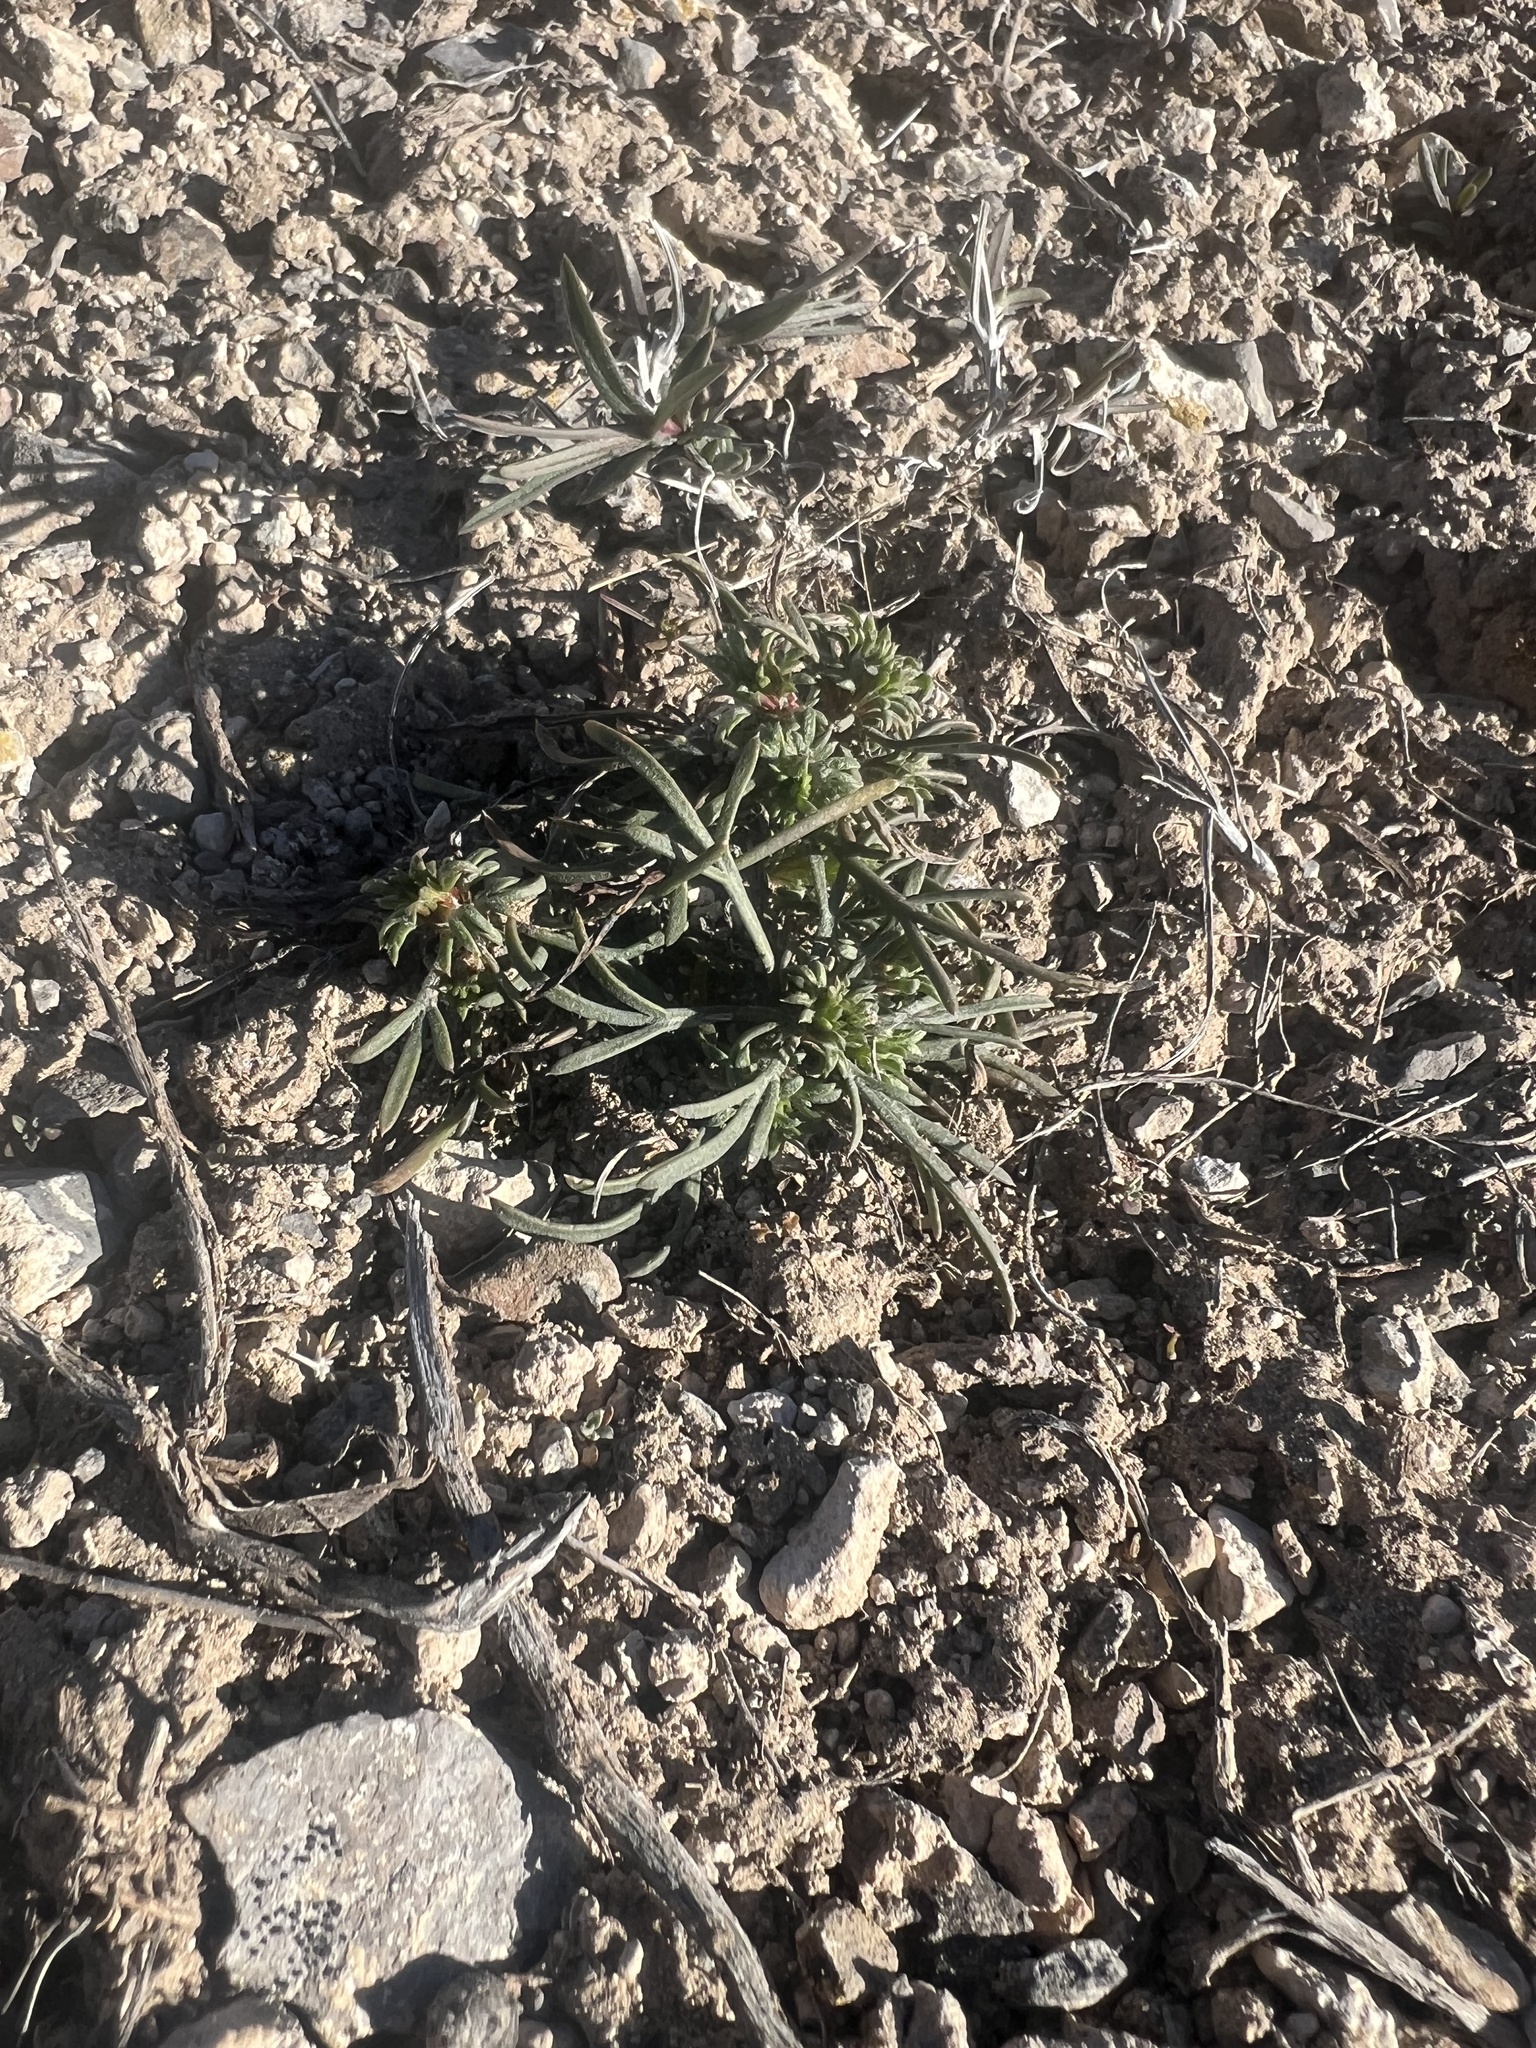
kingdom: Plantae
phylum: Tracheophyta
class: Magnoliopsida
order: Ericales
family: Polemoniaceae
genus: Ipomopsis
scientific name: Ipomopsis congesta
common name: Ball-head gilia
